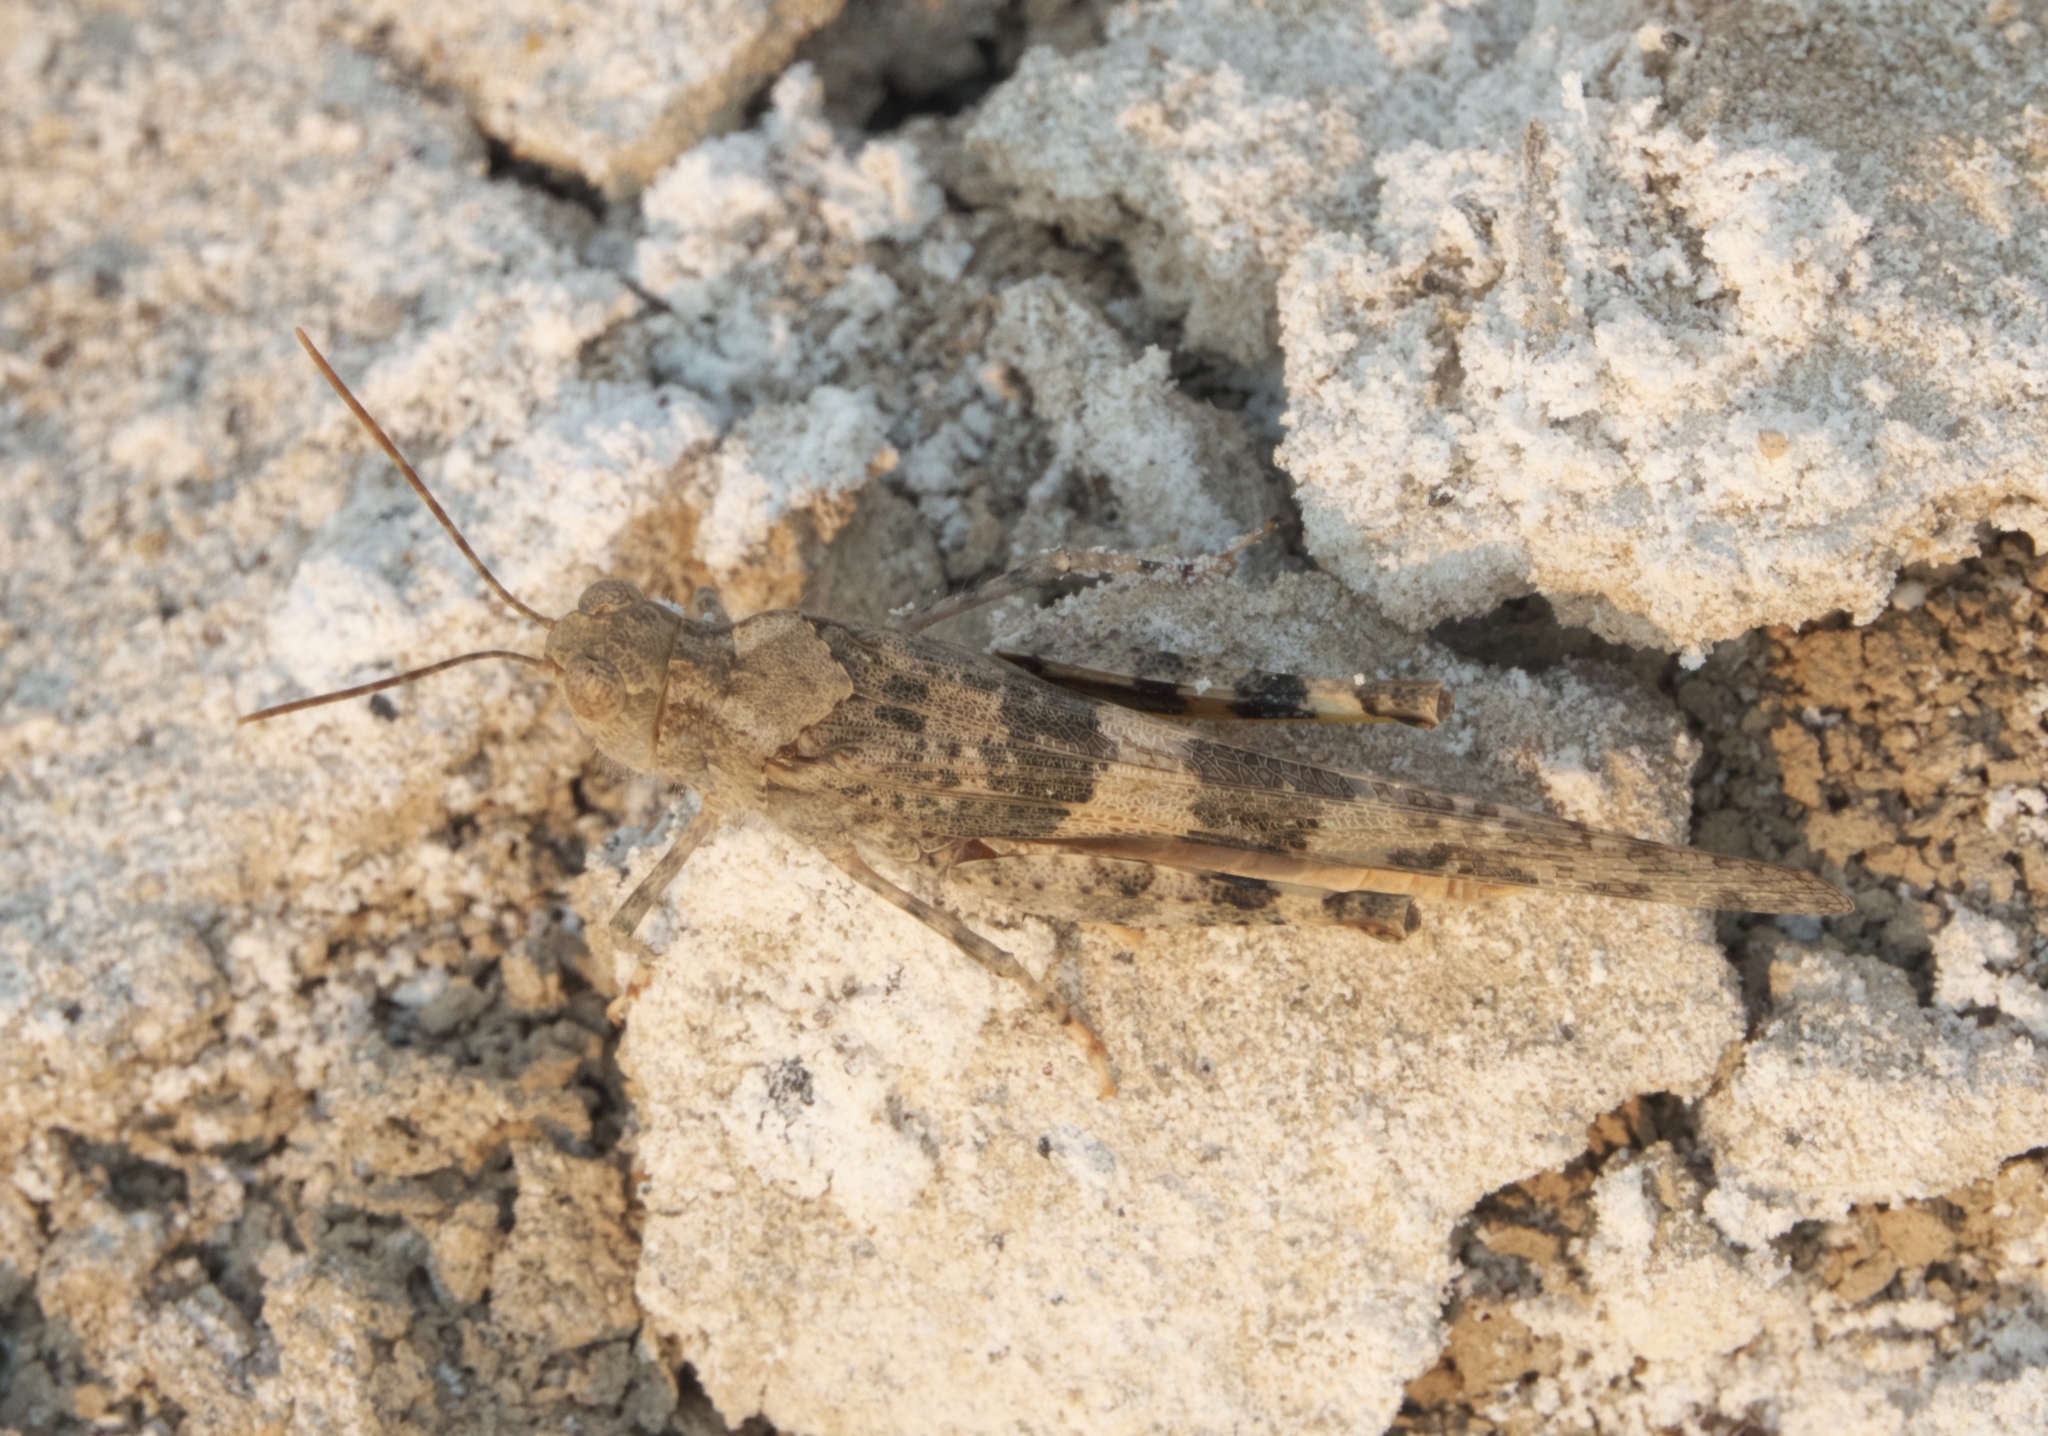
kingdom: Animalia
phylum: Arthropoda
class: Insecta
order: Orthoptera
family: Acrididae
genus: Trimerotropis
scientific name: Trimerotropis pallidipennis
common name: Pallid-winged grasshopper
